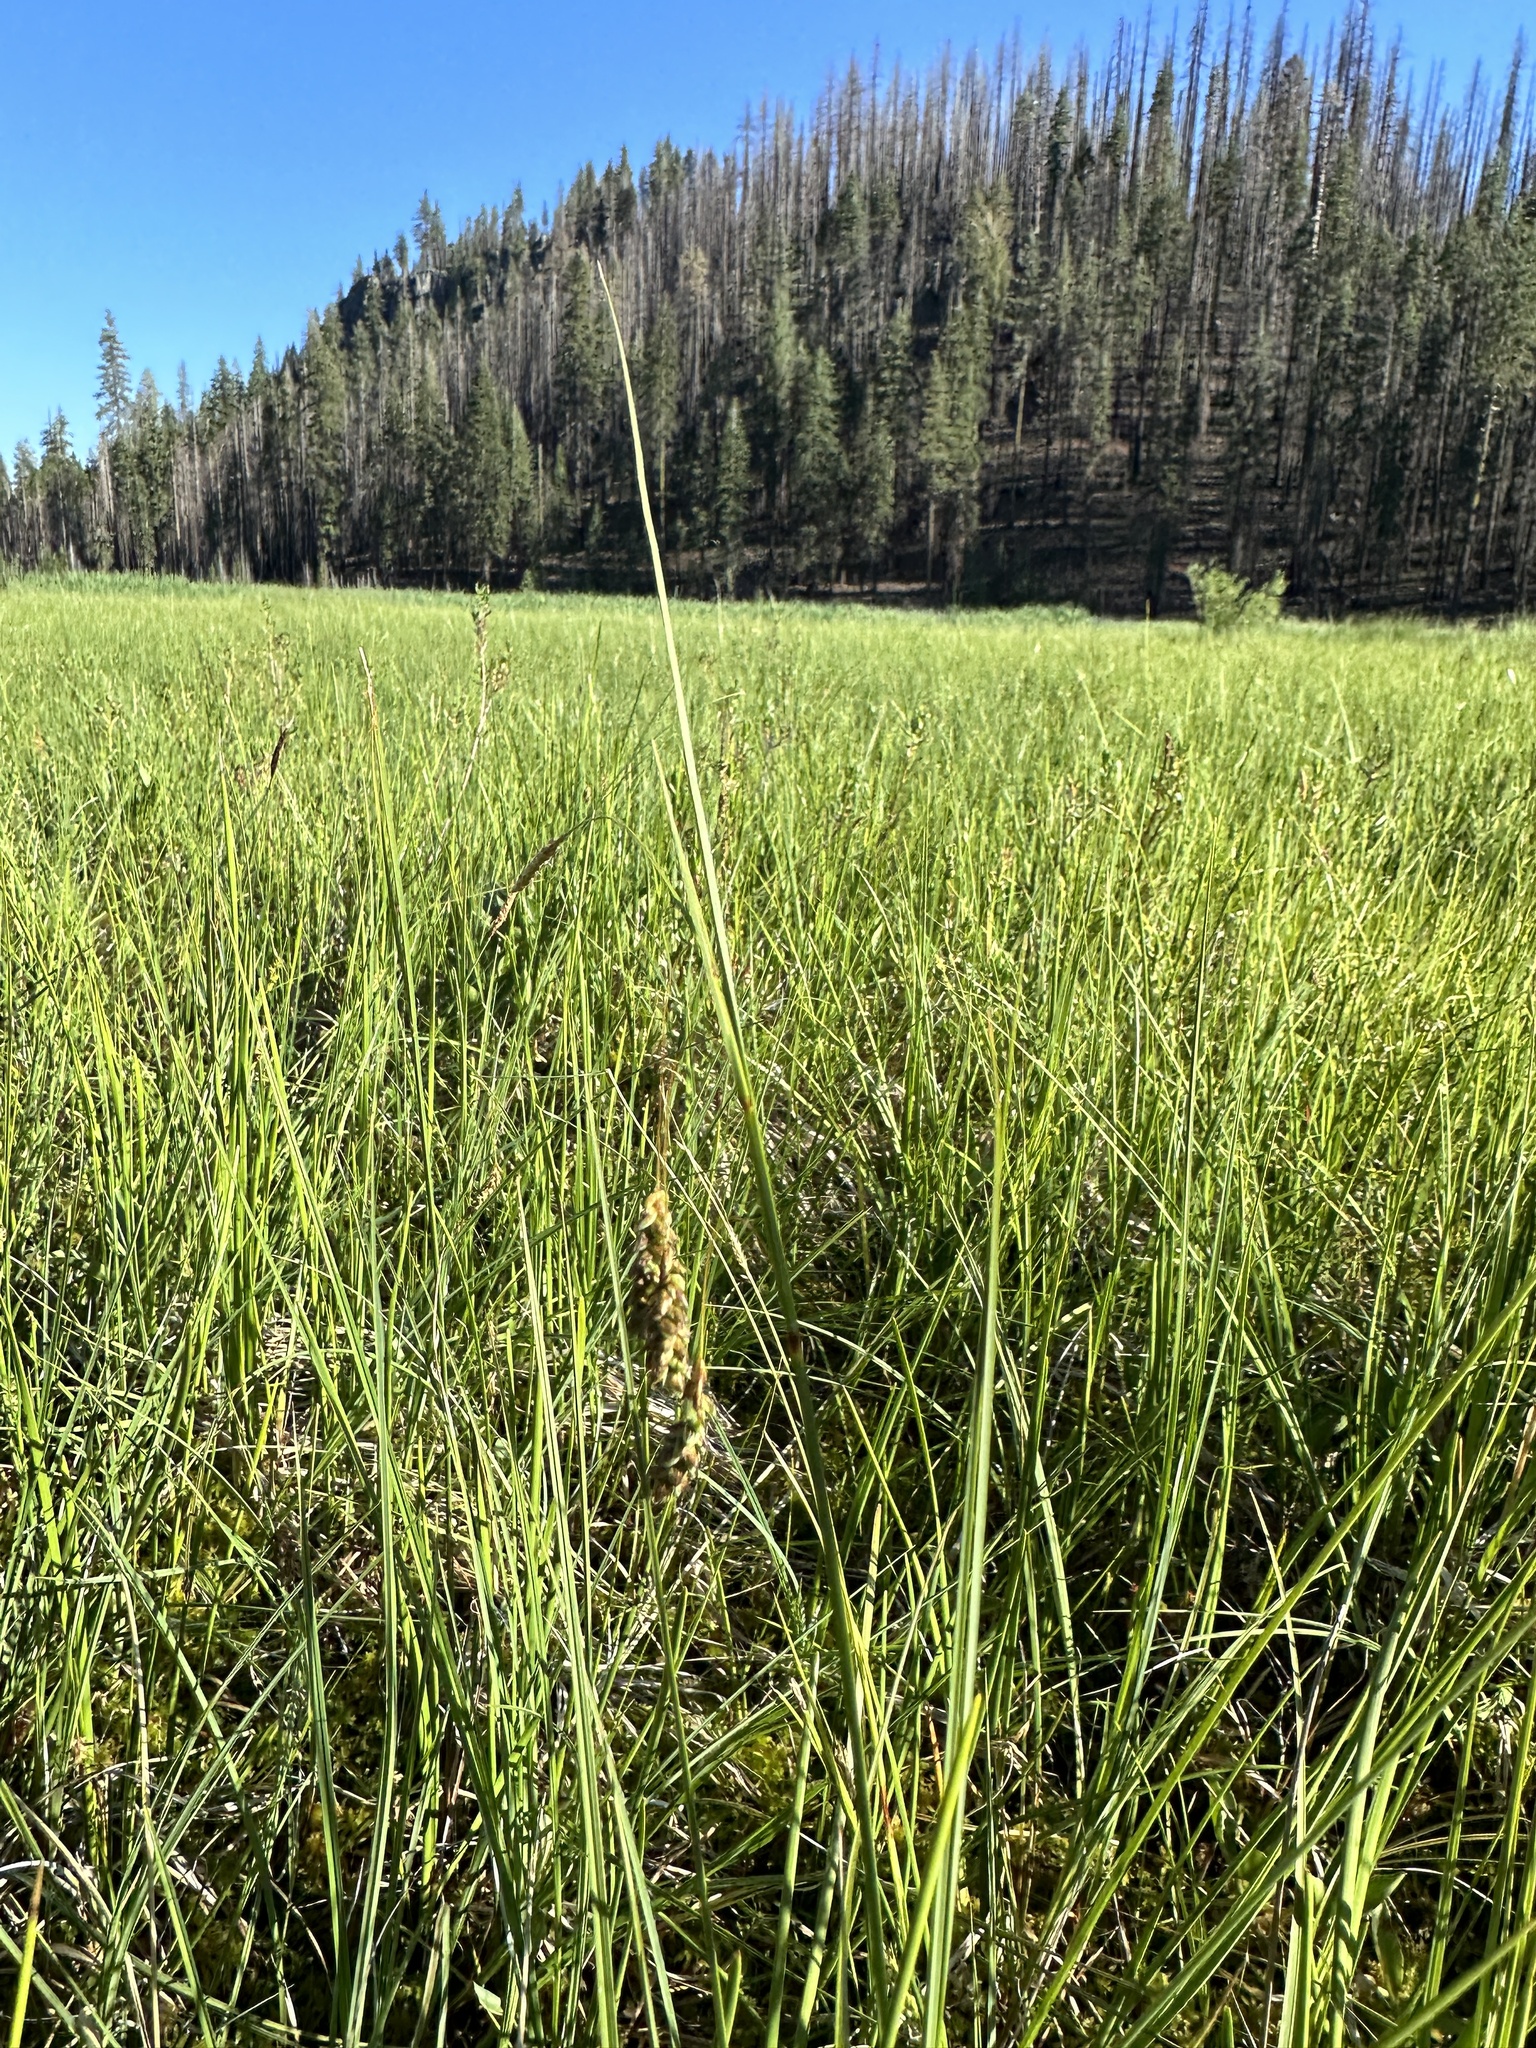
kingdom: Plantae
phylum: Tracheophyta
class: Liliopsida
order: Poales
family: Cyperaceae
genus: Carex
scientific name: Carex limosa
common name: Bog sedge
